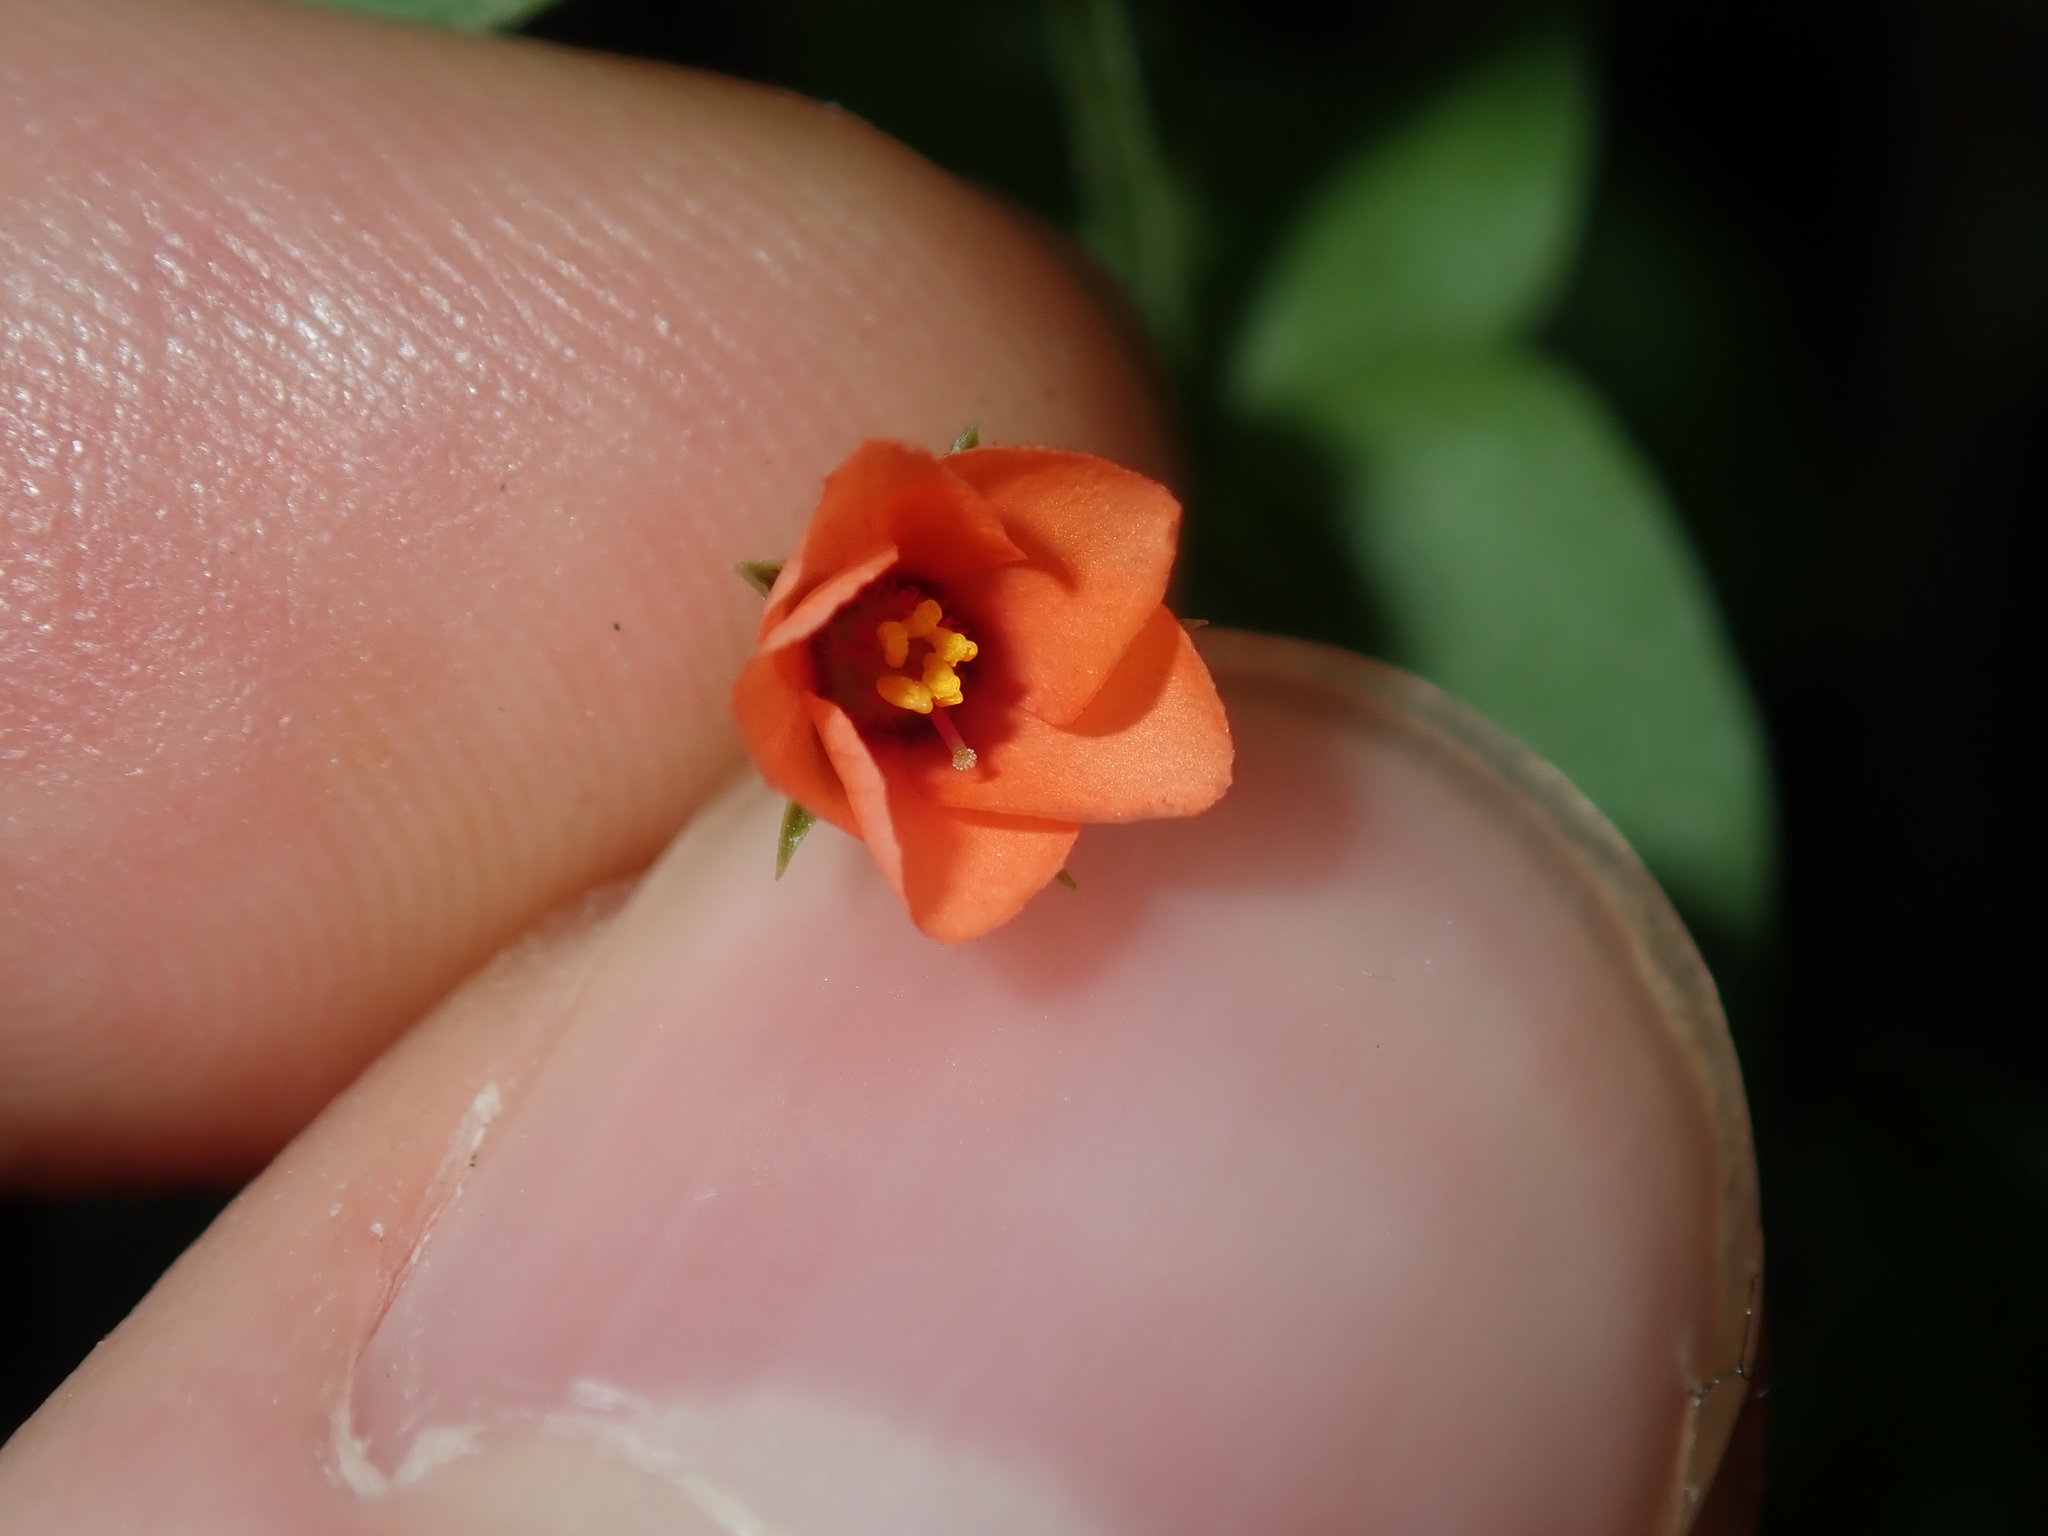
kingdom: Plantae
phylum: Tracheophyta
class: Magnoliopsida
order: Ericales
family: Primulaceae
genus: Lysimachia
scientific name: Lysimachia arvensis
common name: Scarlet pimpernel
